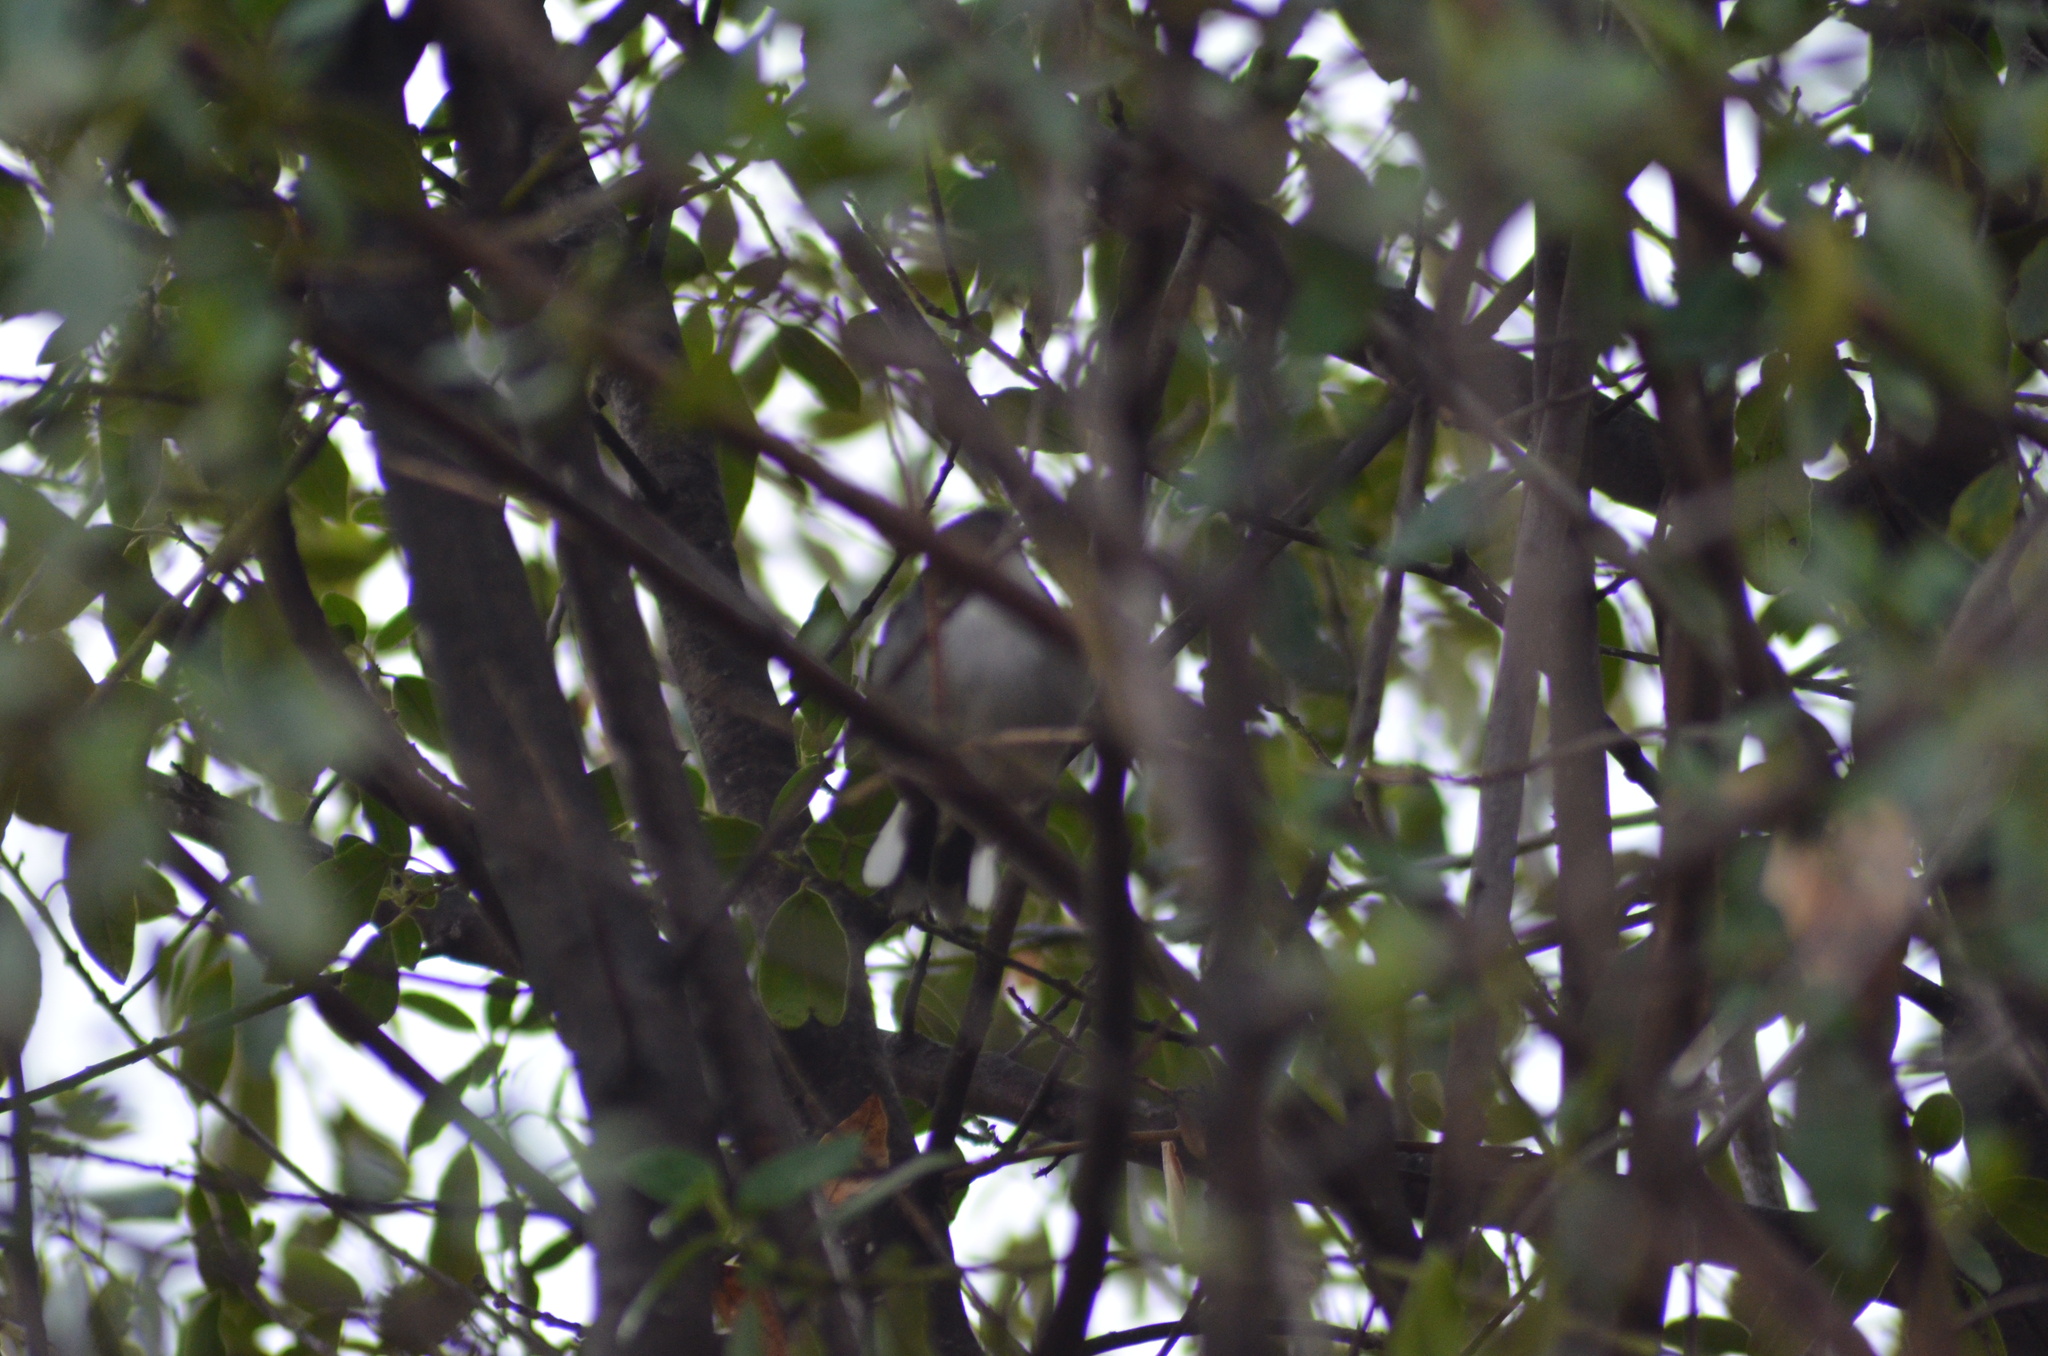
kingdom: Animalia
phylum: Chordata
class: Aves
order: Passeriformes
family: Sylviidae
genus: Curruca
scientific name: Curruca melanocephala
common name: Sardinian warbler
